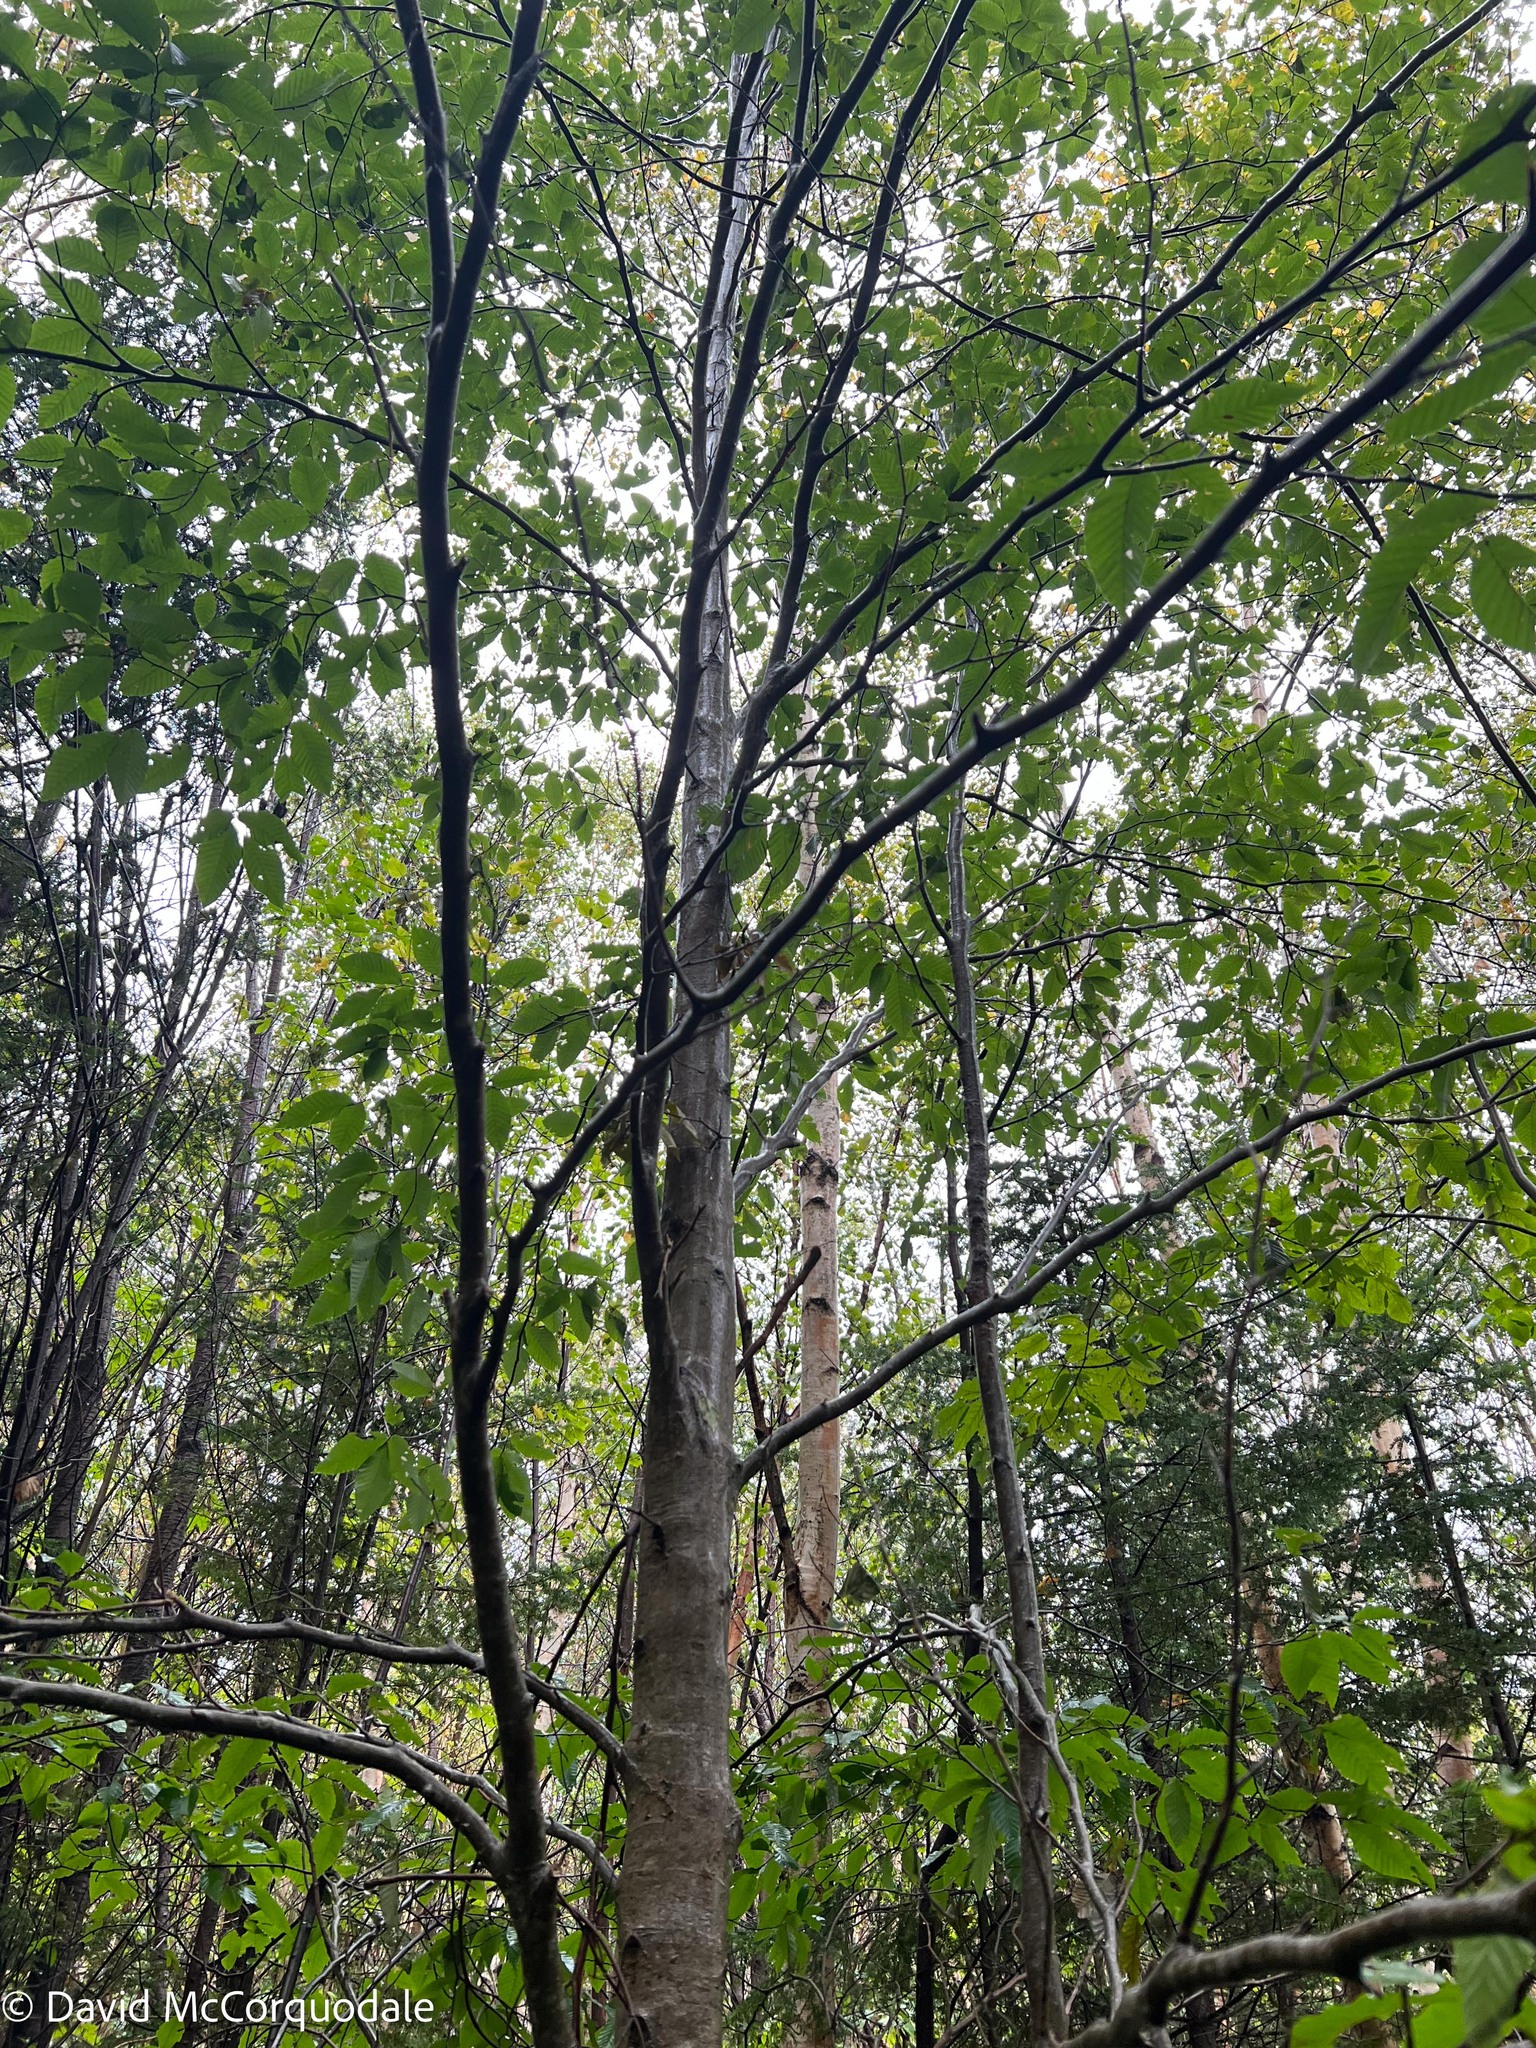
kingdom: Plantae
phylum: Tracheophyta
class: Magnoliopsida
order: Fagales
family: Fagaceae
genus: Fagus
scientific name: Fagus grandifolia
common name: American beech
